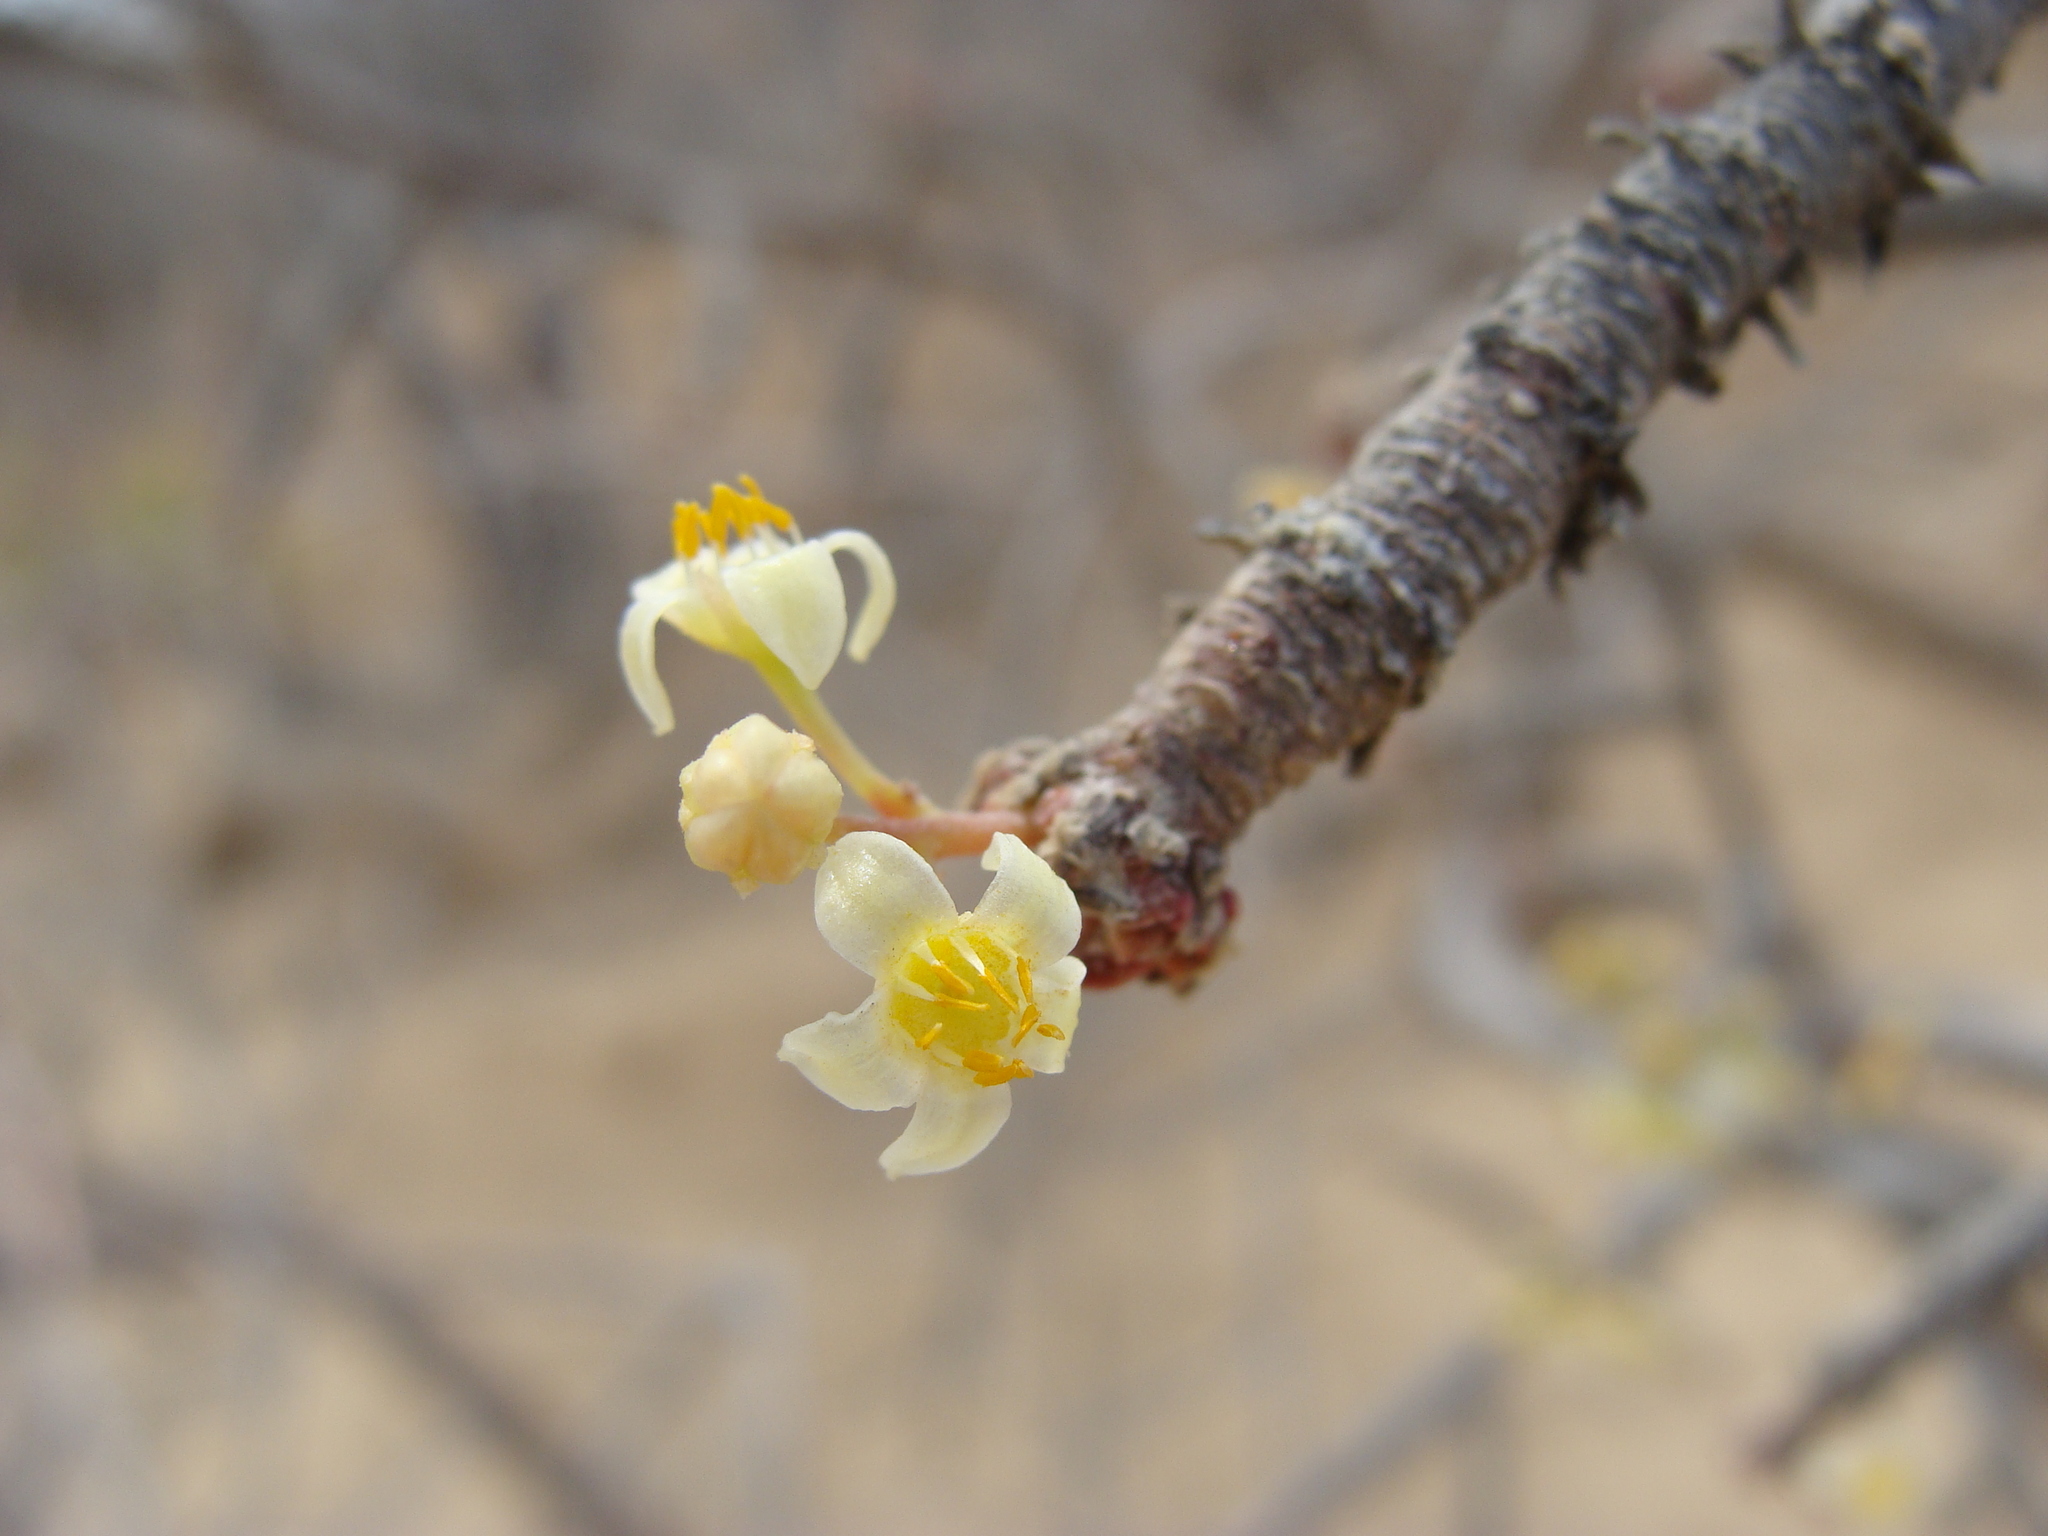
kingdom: Plantae
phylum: Tracheophyta
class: Magnoliopsida
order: Sapindales
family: Burseraceae
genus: Bursera
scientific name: Bursera microphylla
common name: Elephant tree
